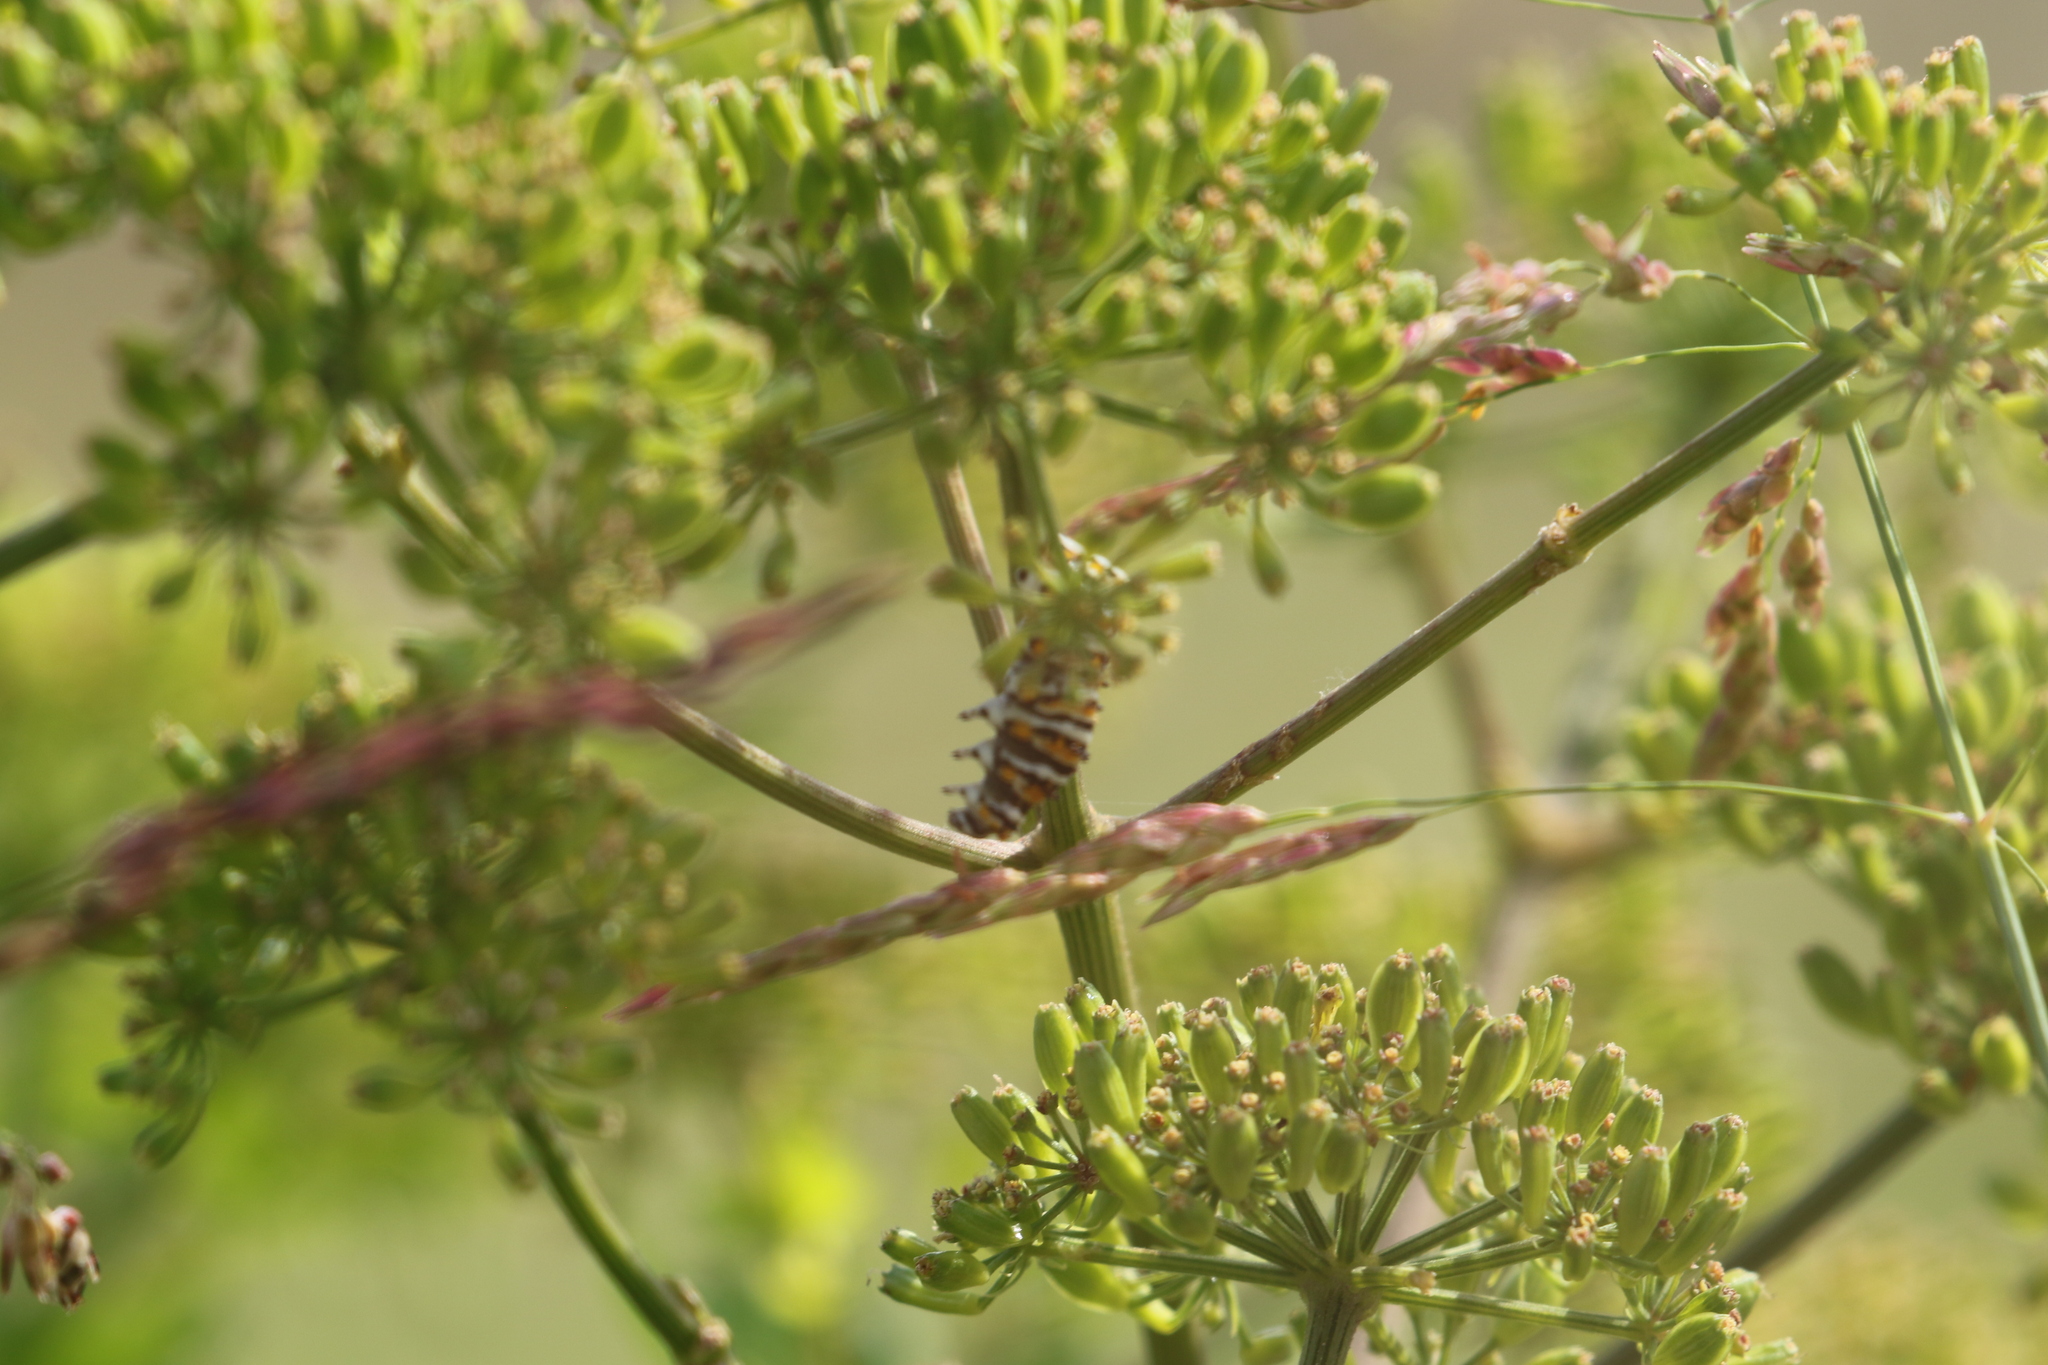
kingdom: Animalia
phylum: Arthropoda
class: Insecta
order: Lepidoptera
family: Papilionidae
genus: Papilio
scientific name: Papilio polyxenes
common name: Black swallowtail
